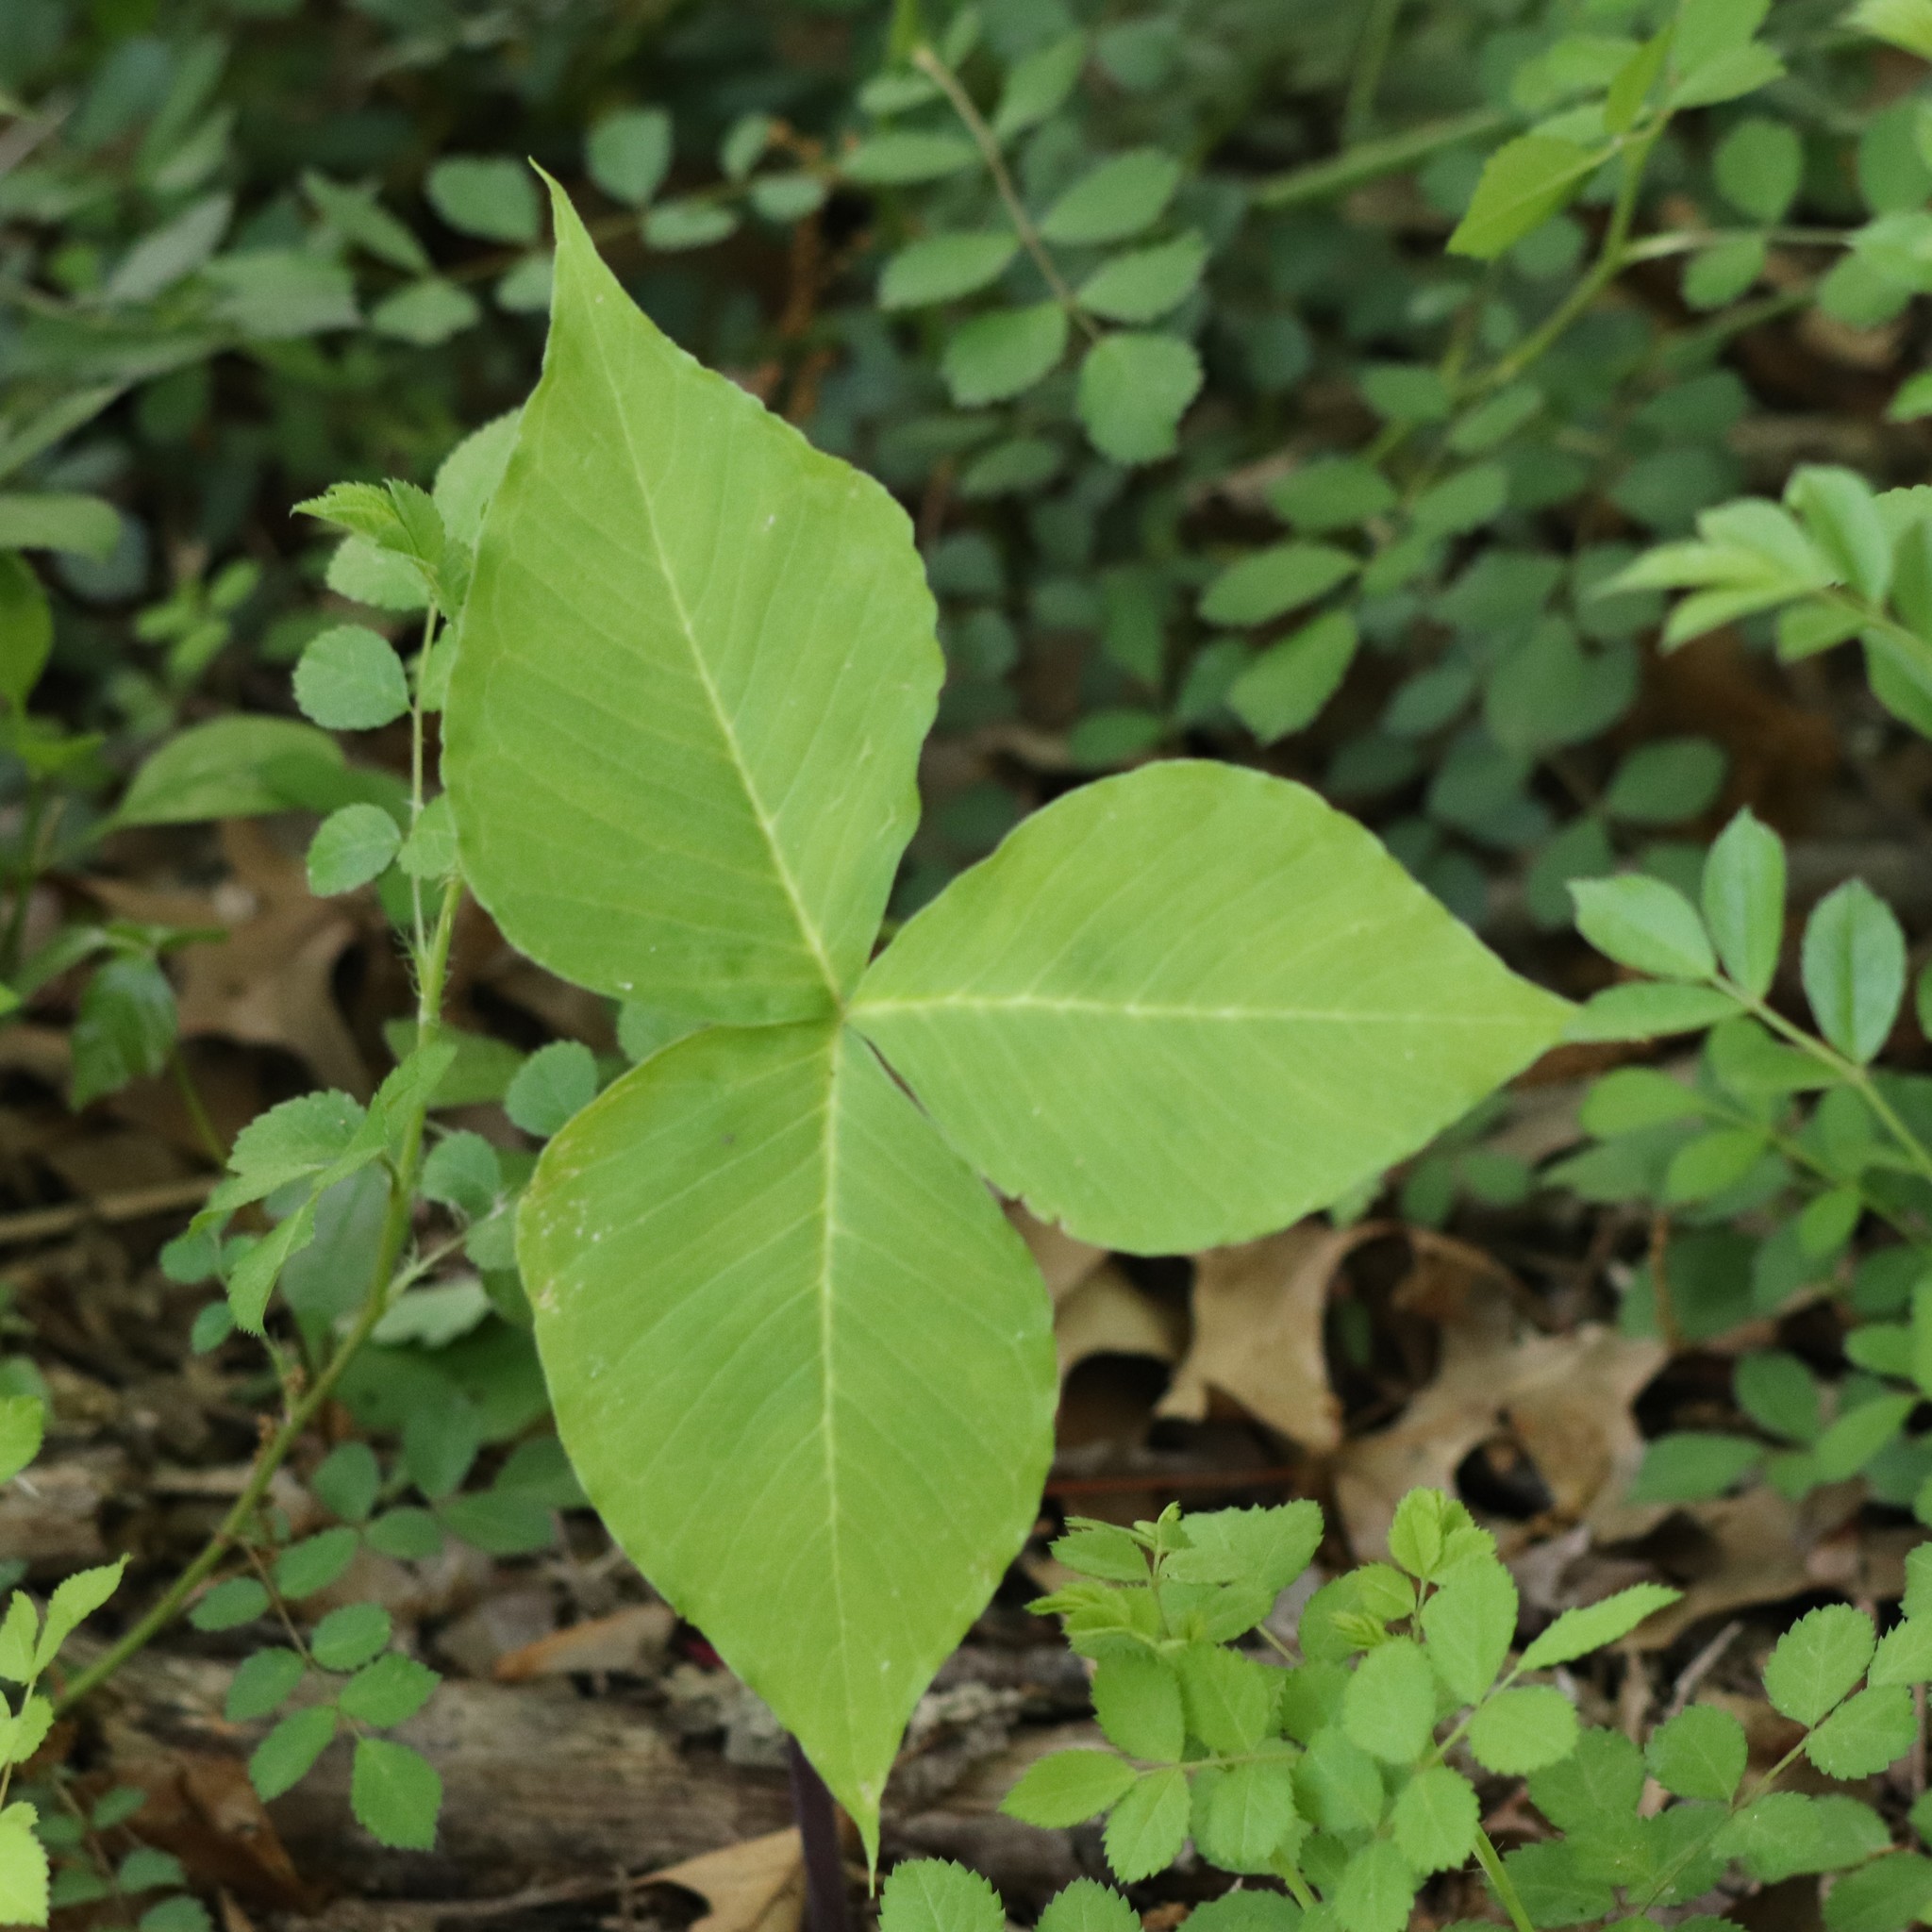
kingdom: Plantae
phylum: Tracheophyta
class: Liliopsida
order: Alismatales
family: Araceae
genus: Arisaema
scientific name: Arisaema triphyllum
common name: Jack-in-the-pulpit
